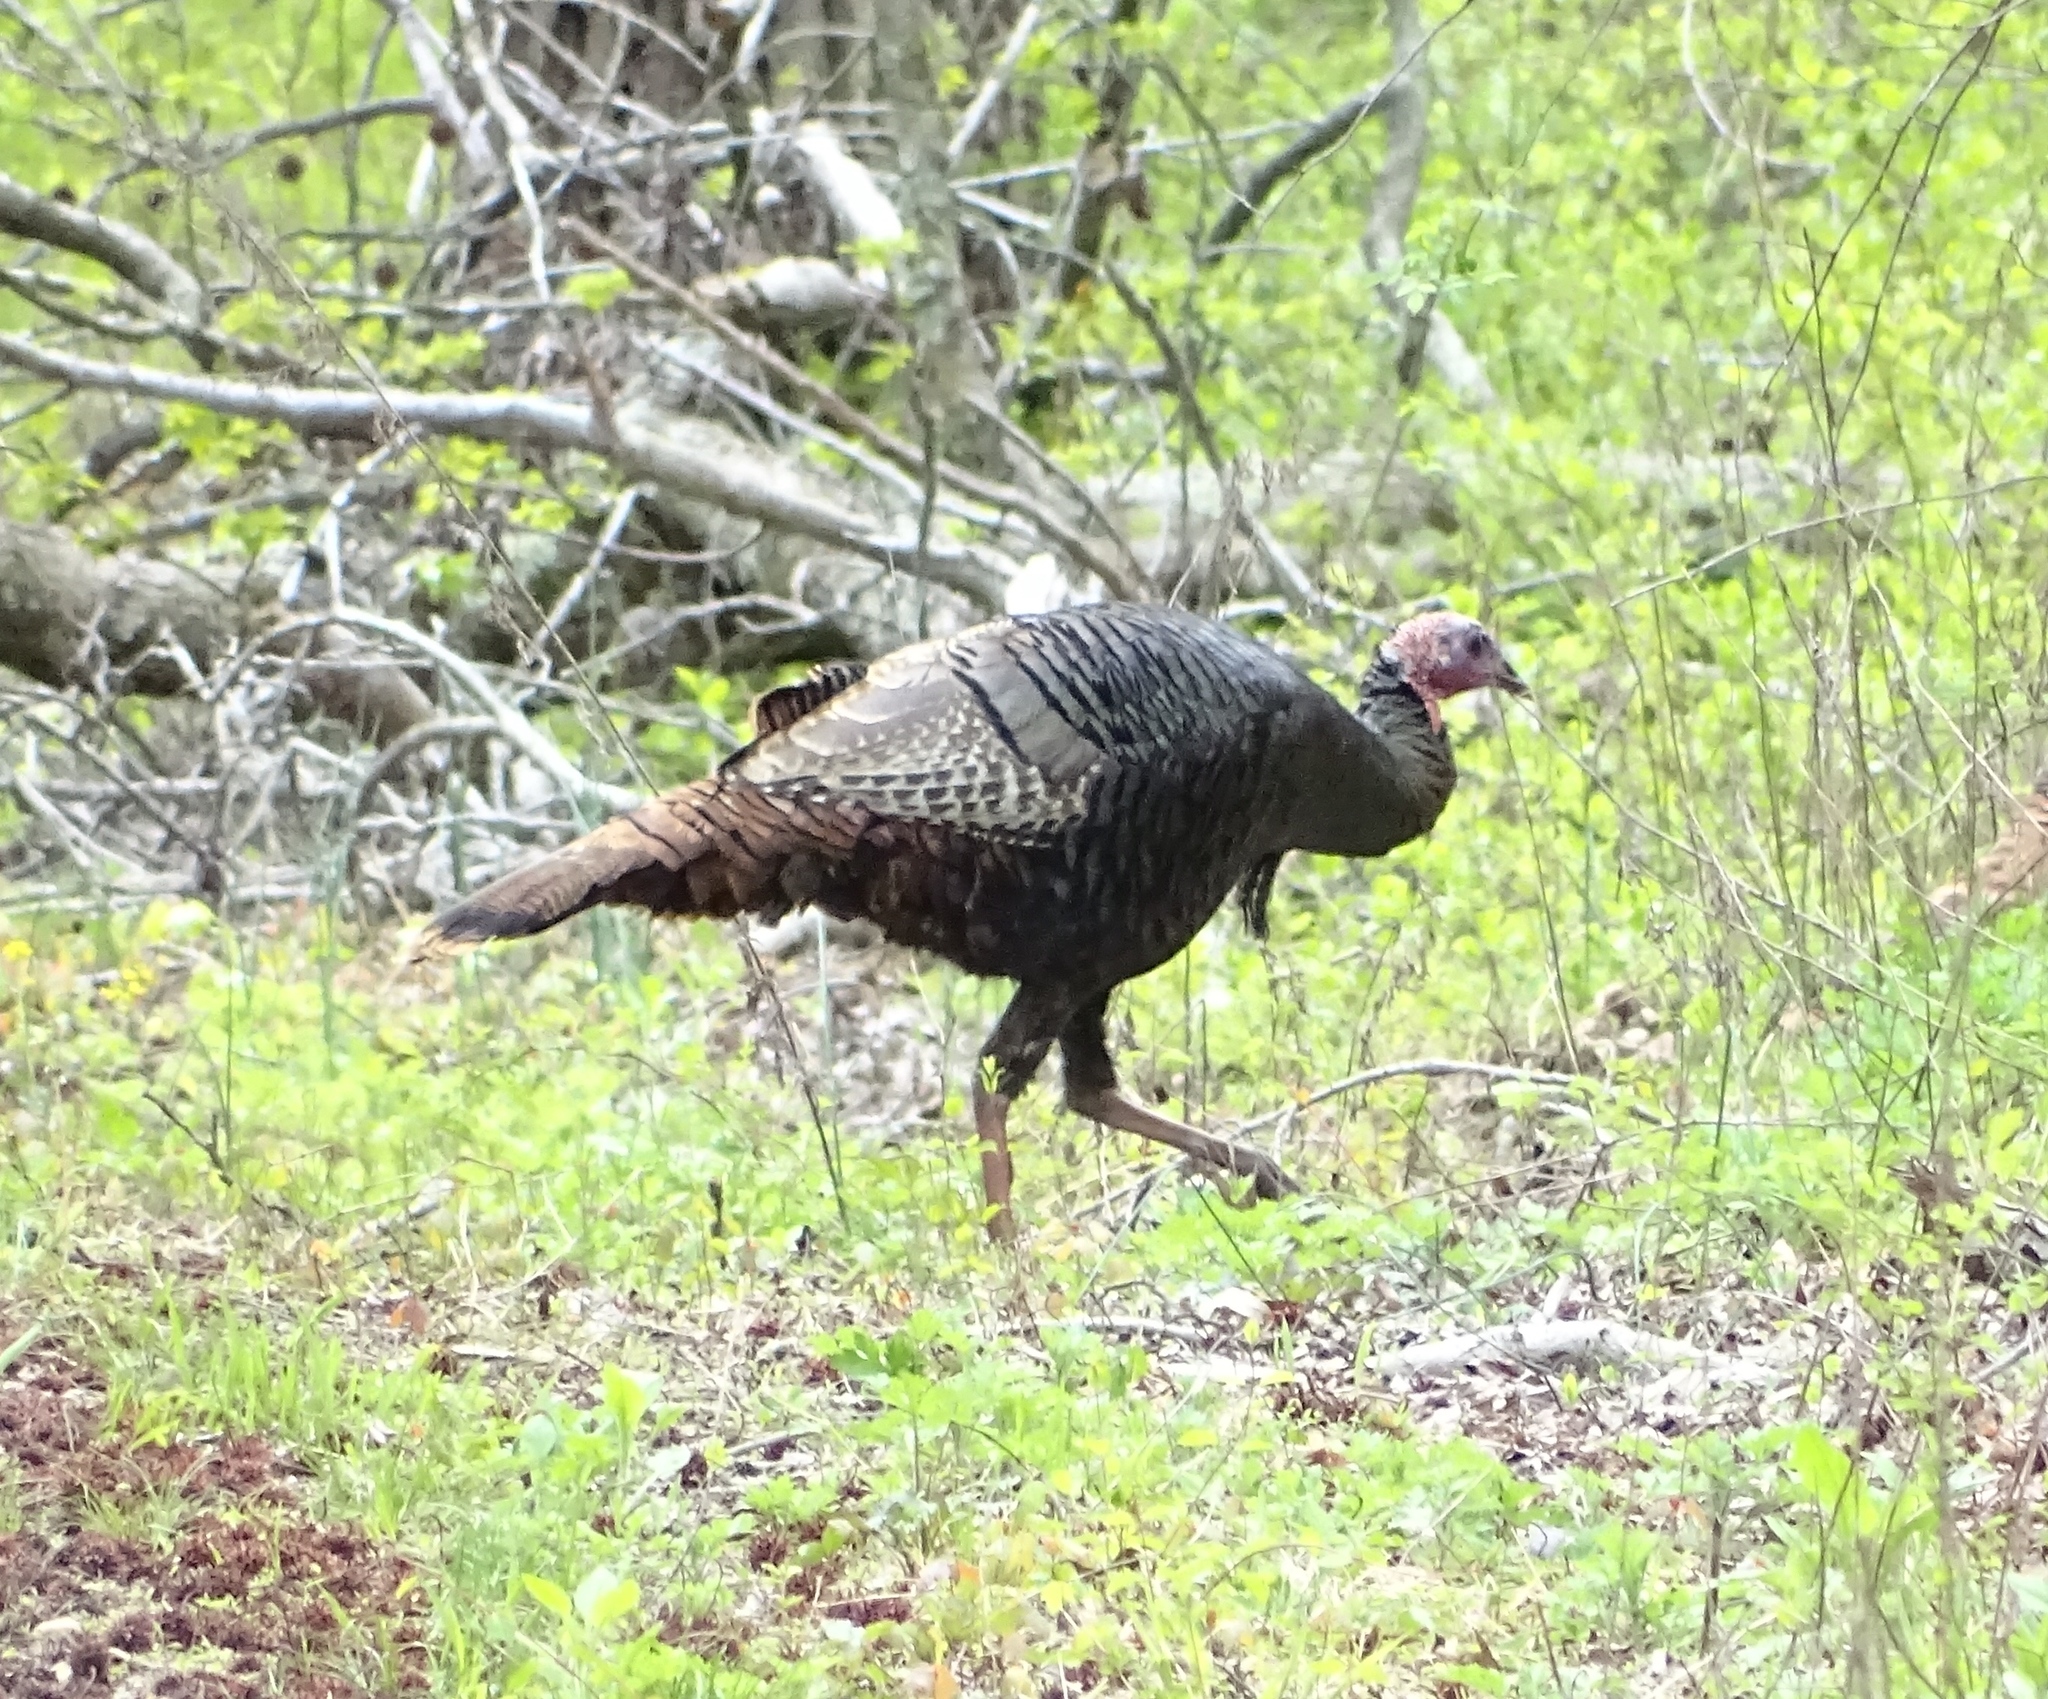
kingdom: Animalia
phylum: Chordata
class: Aves
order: Galliformes
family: Phasianidae
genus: Meleagris
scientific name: Meleagris gallopavo
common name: Wild turkey
